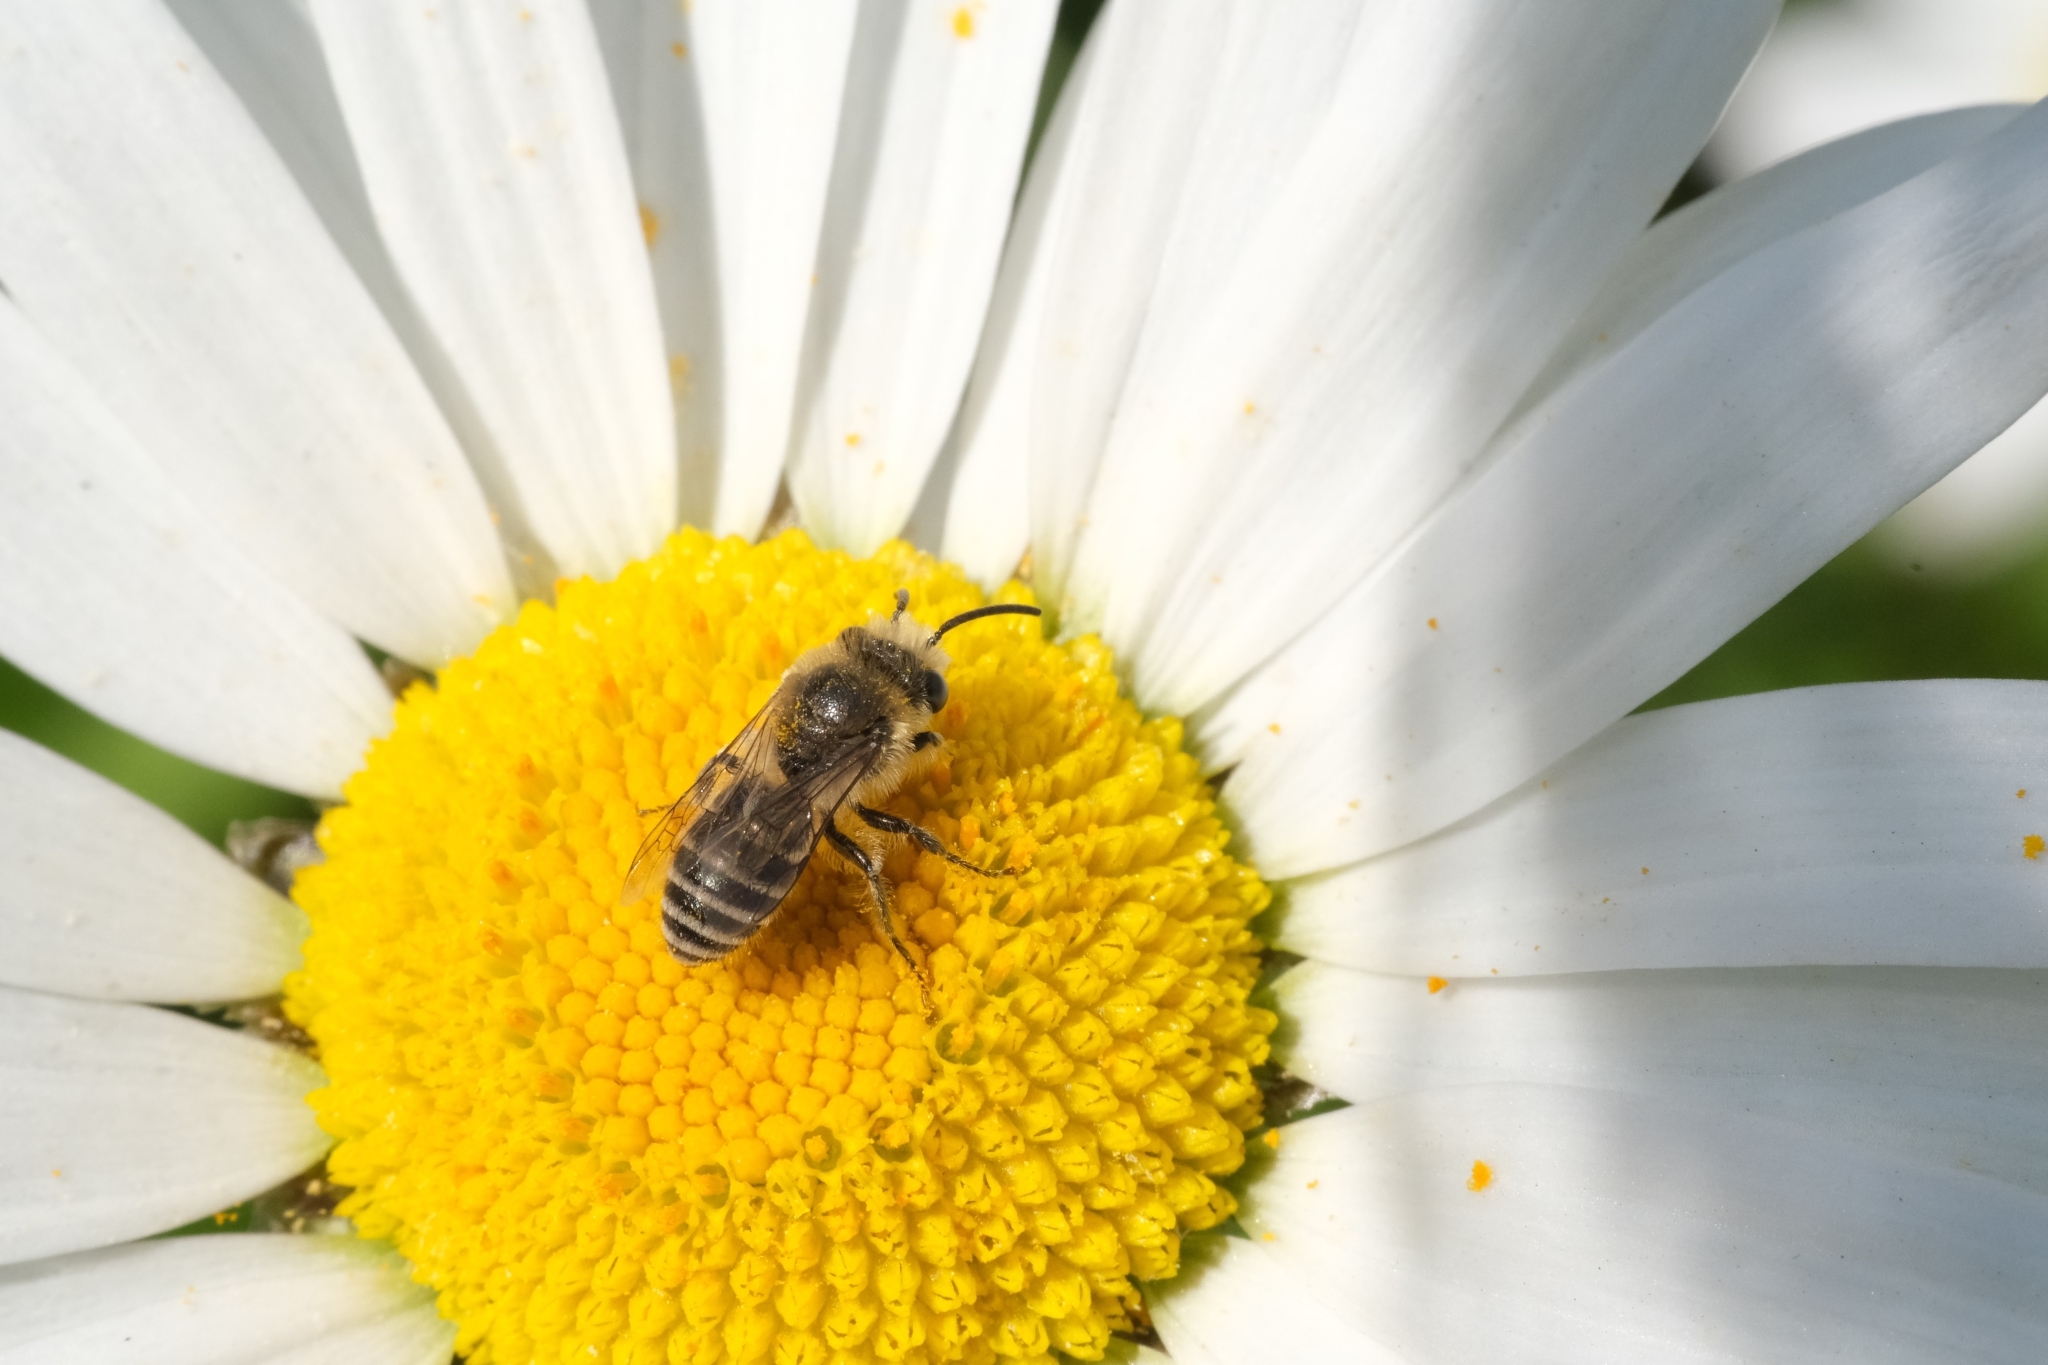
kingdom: Animalia
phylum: Arthropoda
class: Insecta
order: Hymenoptera
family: Apidae
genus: Apis
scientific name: Apis mellifera
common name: Honey bee
